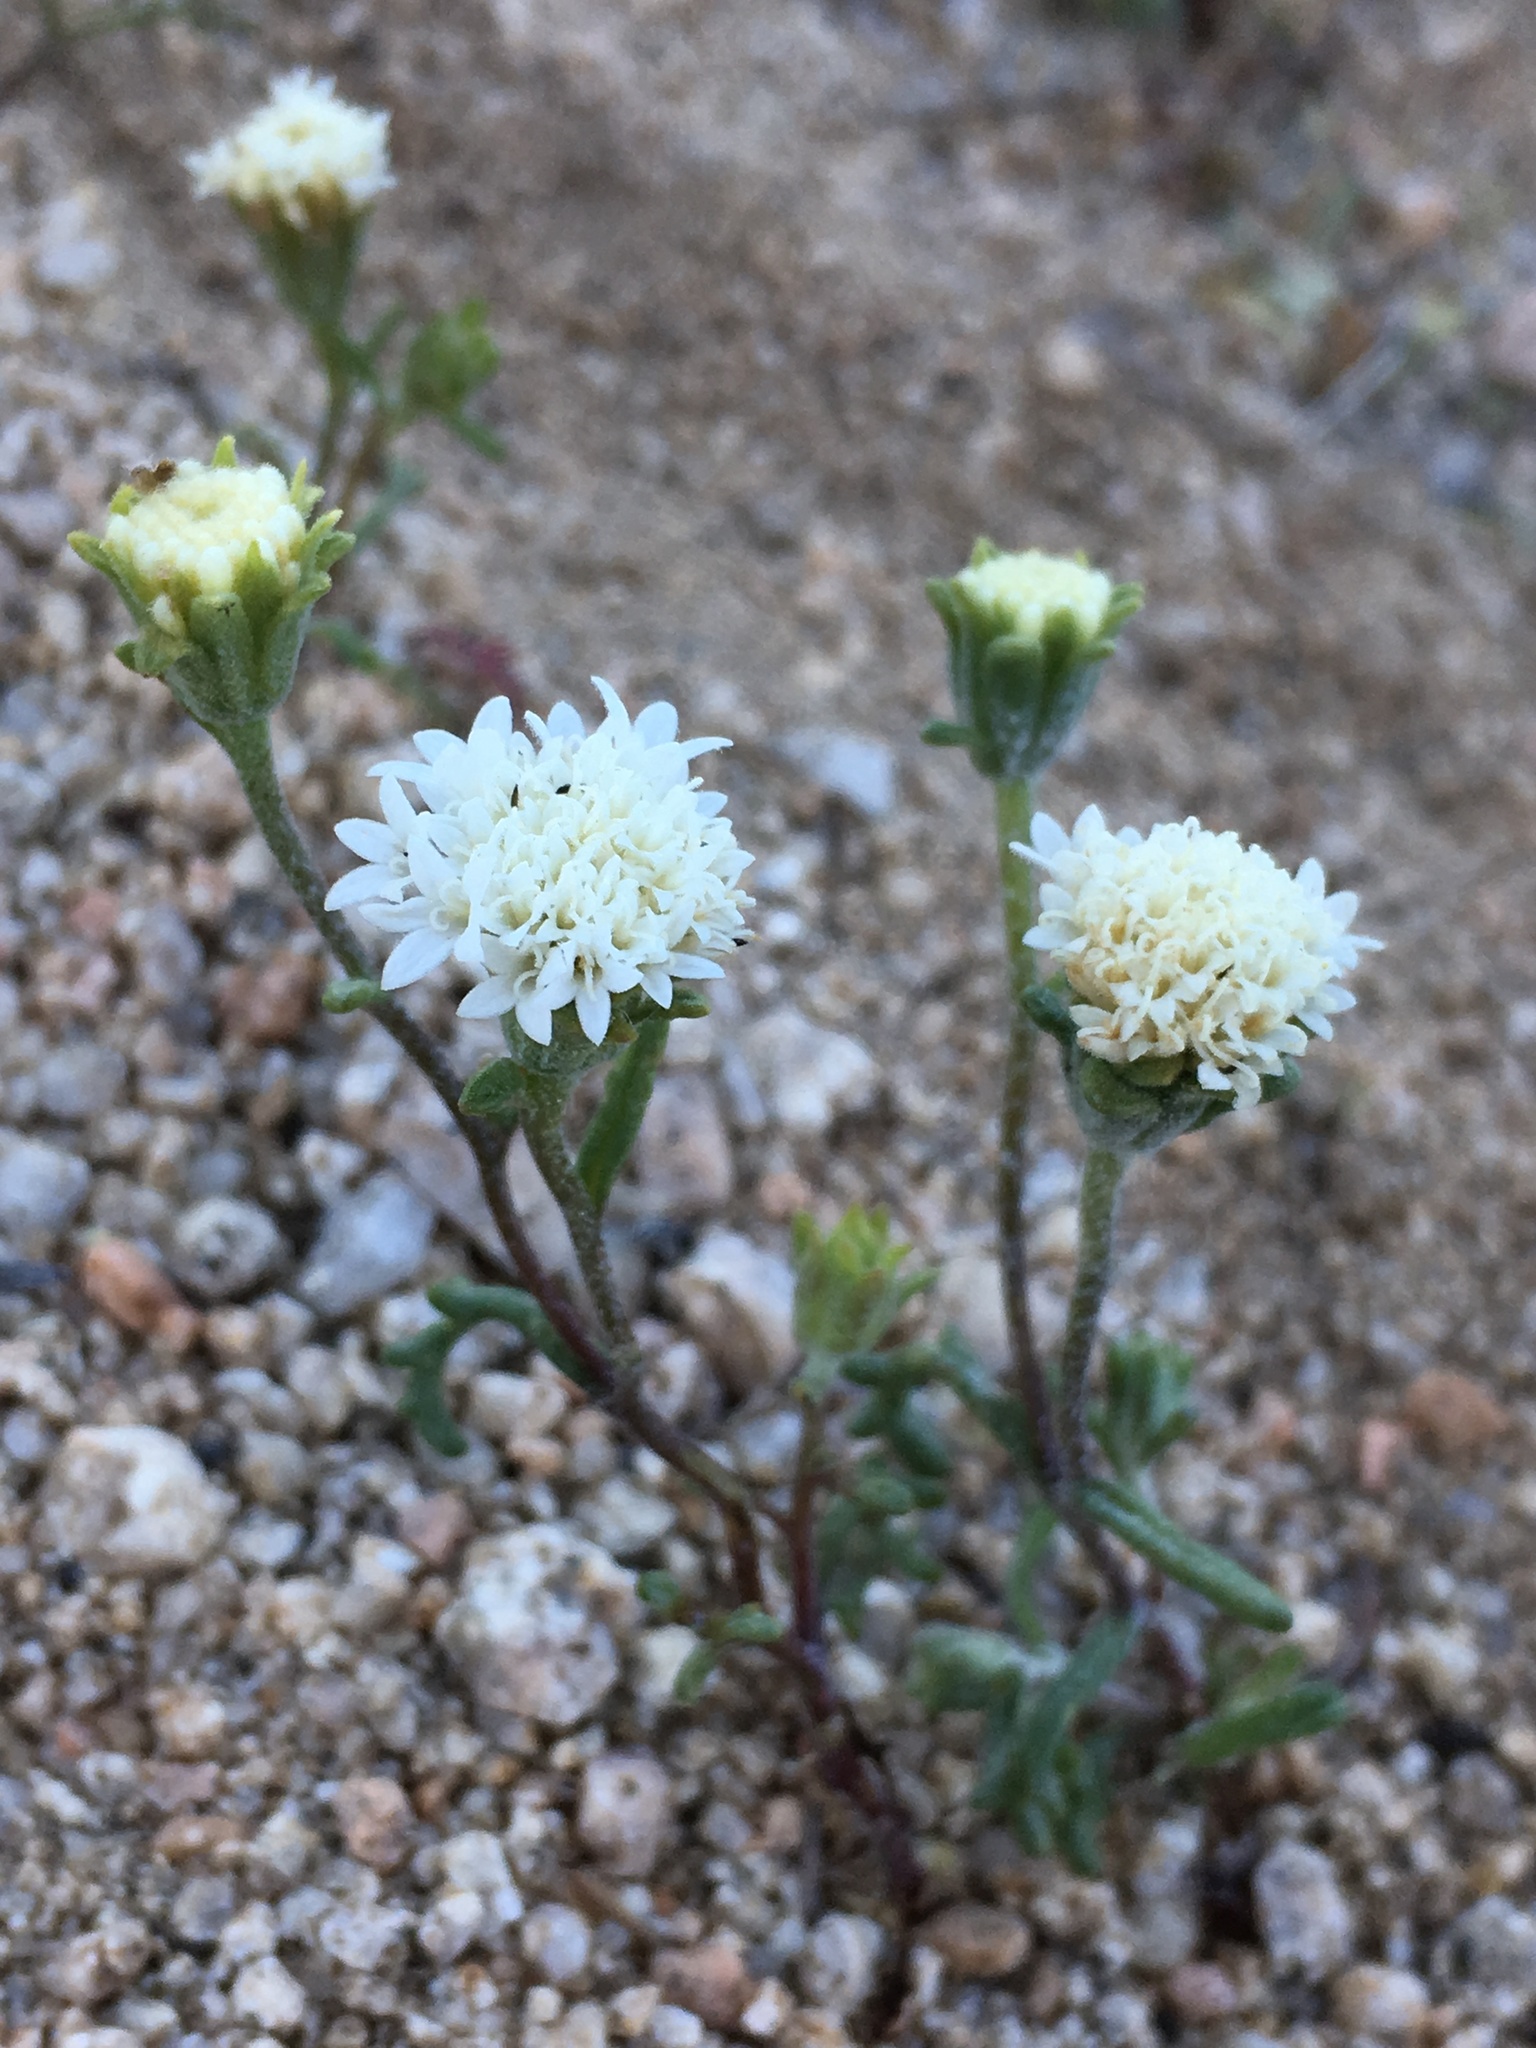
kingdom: Plantae
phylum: Tracheophyta
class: Magnoliopsida
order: Asterales
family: Asteraceae
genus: Chaenactis
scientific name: Chaenactis xantiana
